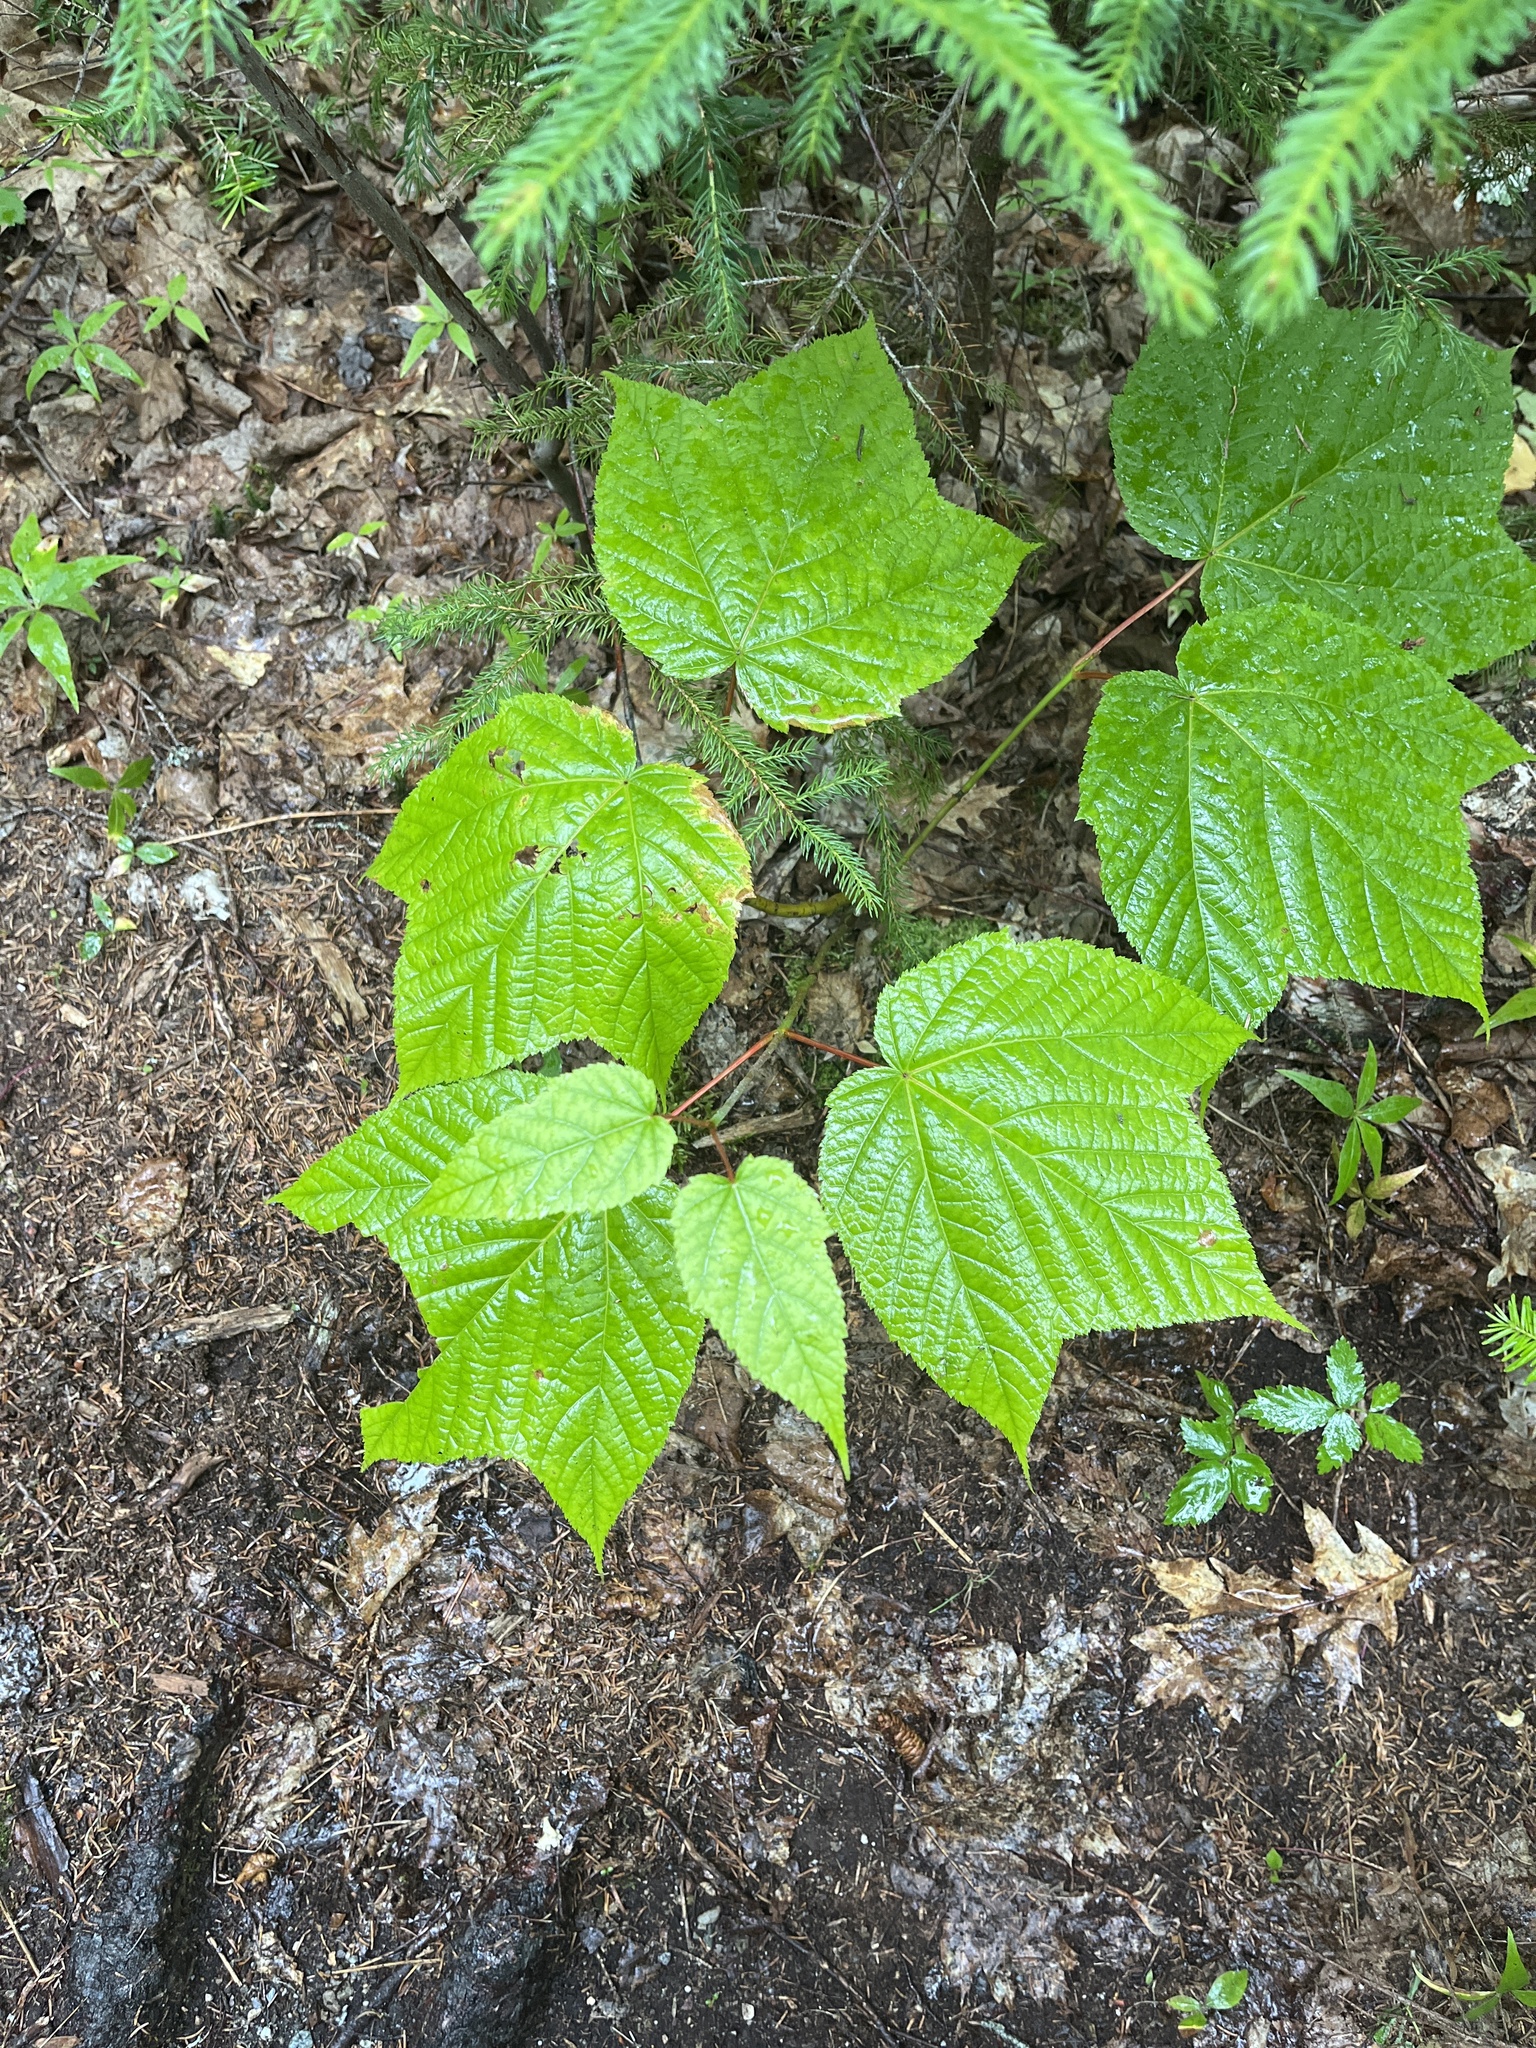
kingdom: Plantae
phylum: Tracheophyta
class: Magnoliopsida
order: Sapindales
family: Sapindaceae
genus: Acer
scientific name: Acer pensylvanicum
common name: Moosewood
